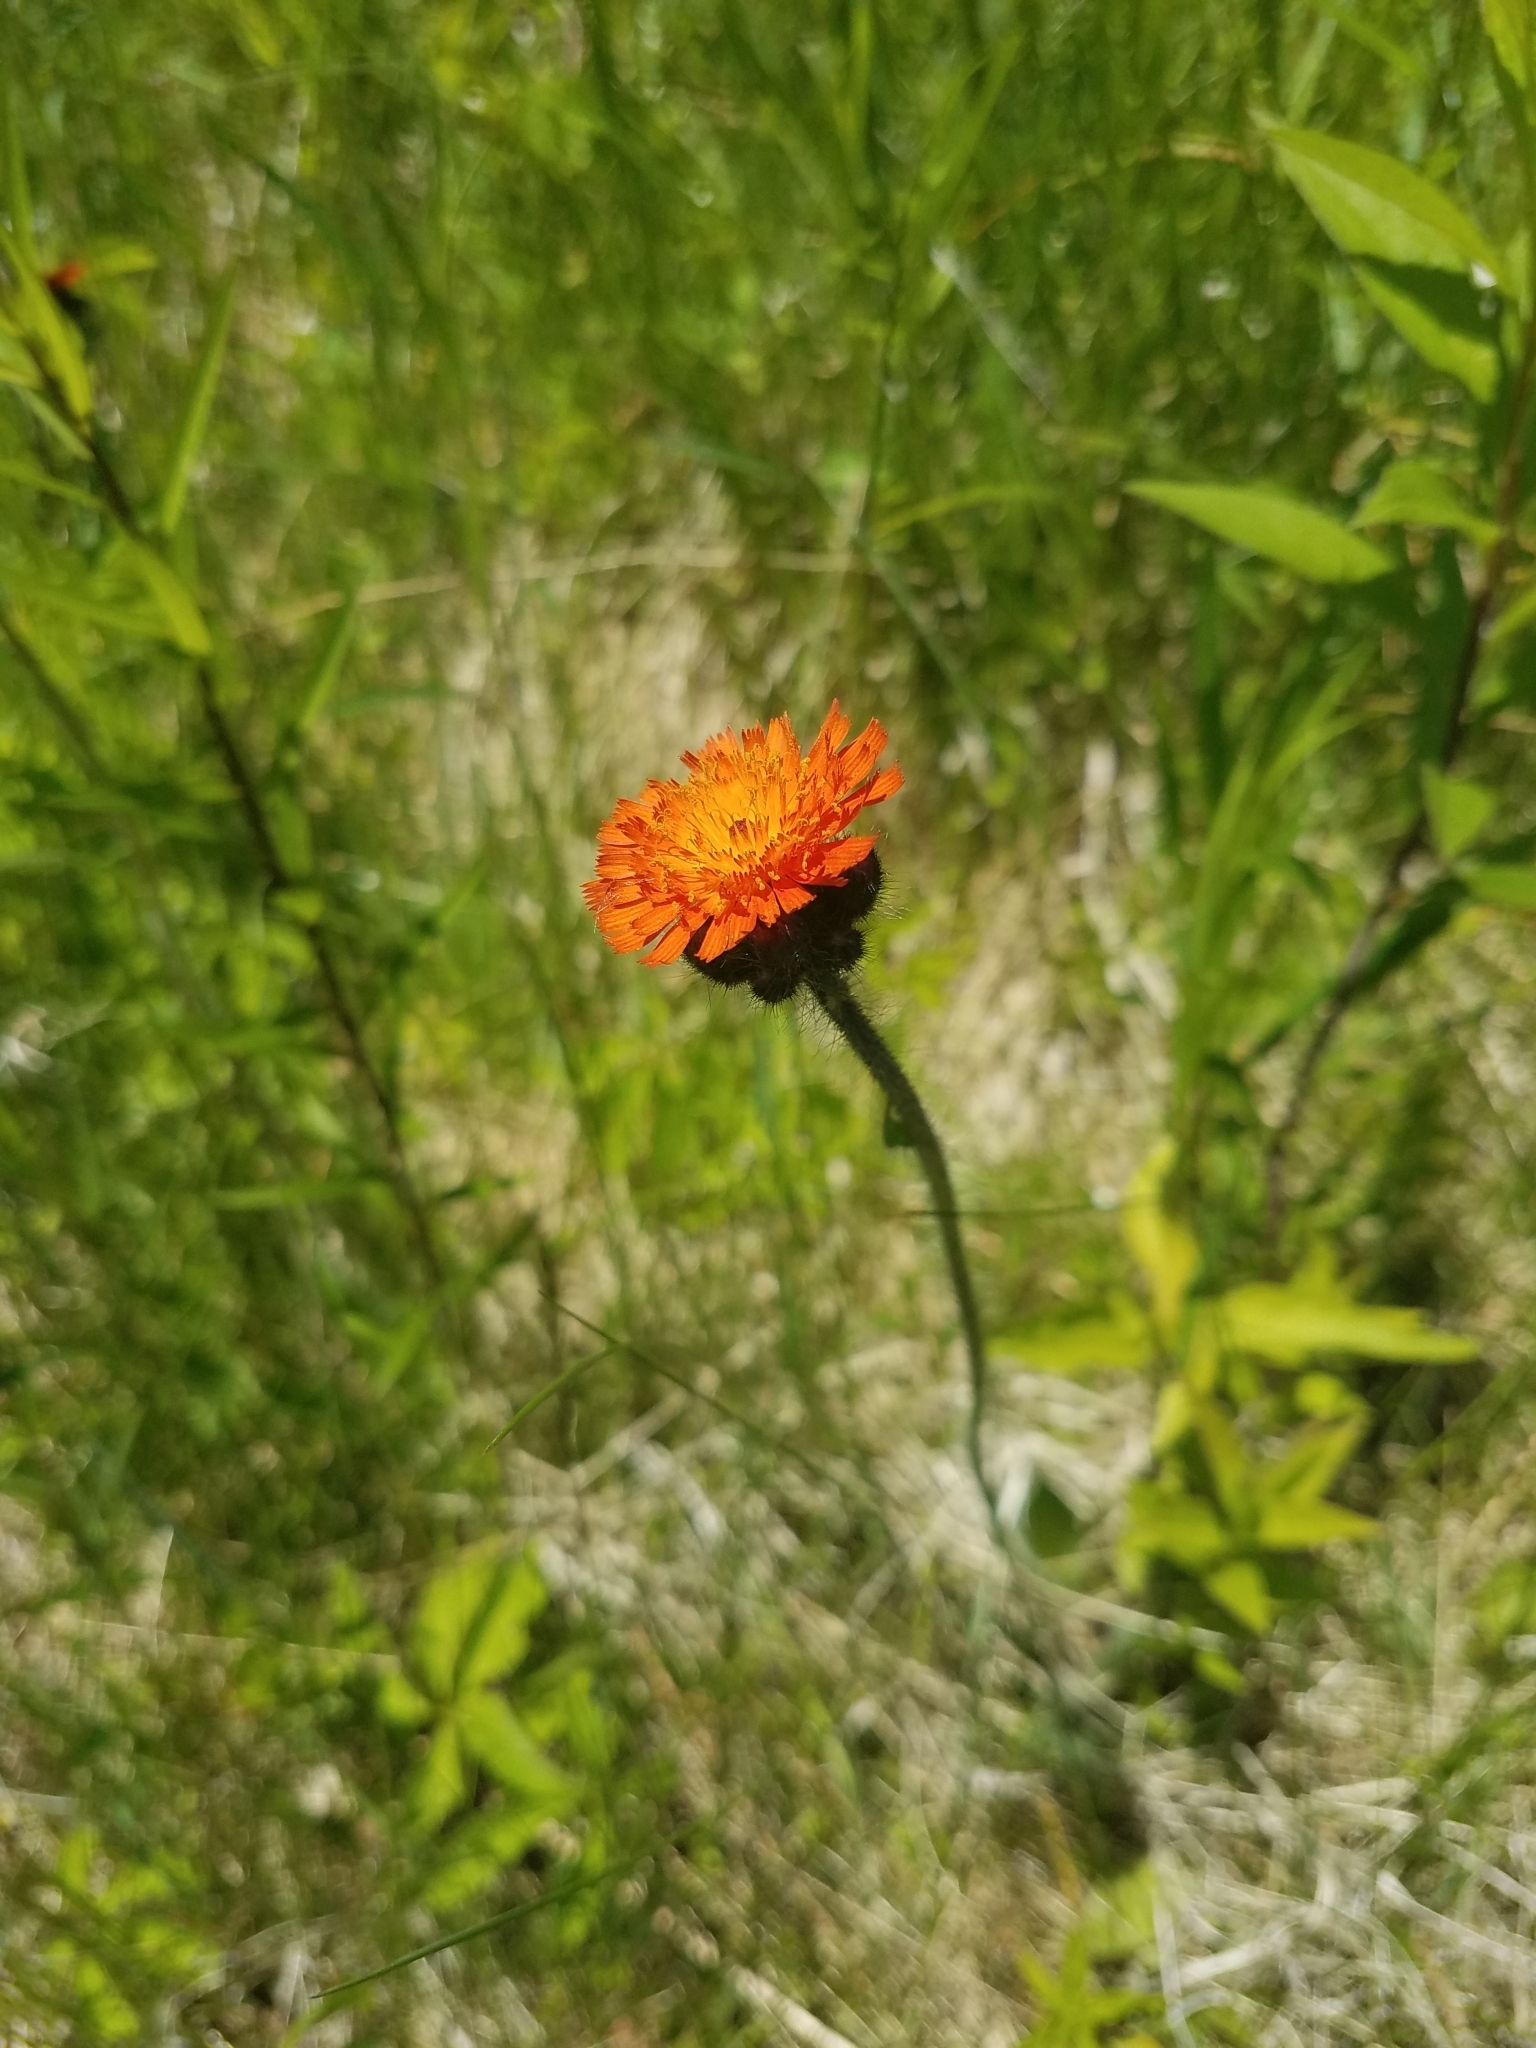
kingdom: Plantae
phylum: Tracheophyta
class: Magnoliopsida
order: Asterales
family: Asteraceae
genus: Pilosella
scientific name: Pilosella aurantiaca
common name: Fox-and-cubs
